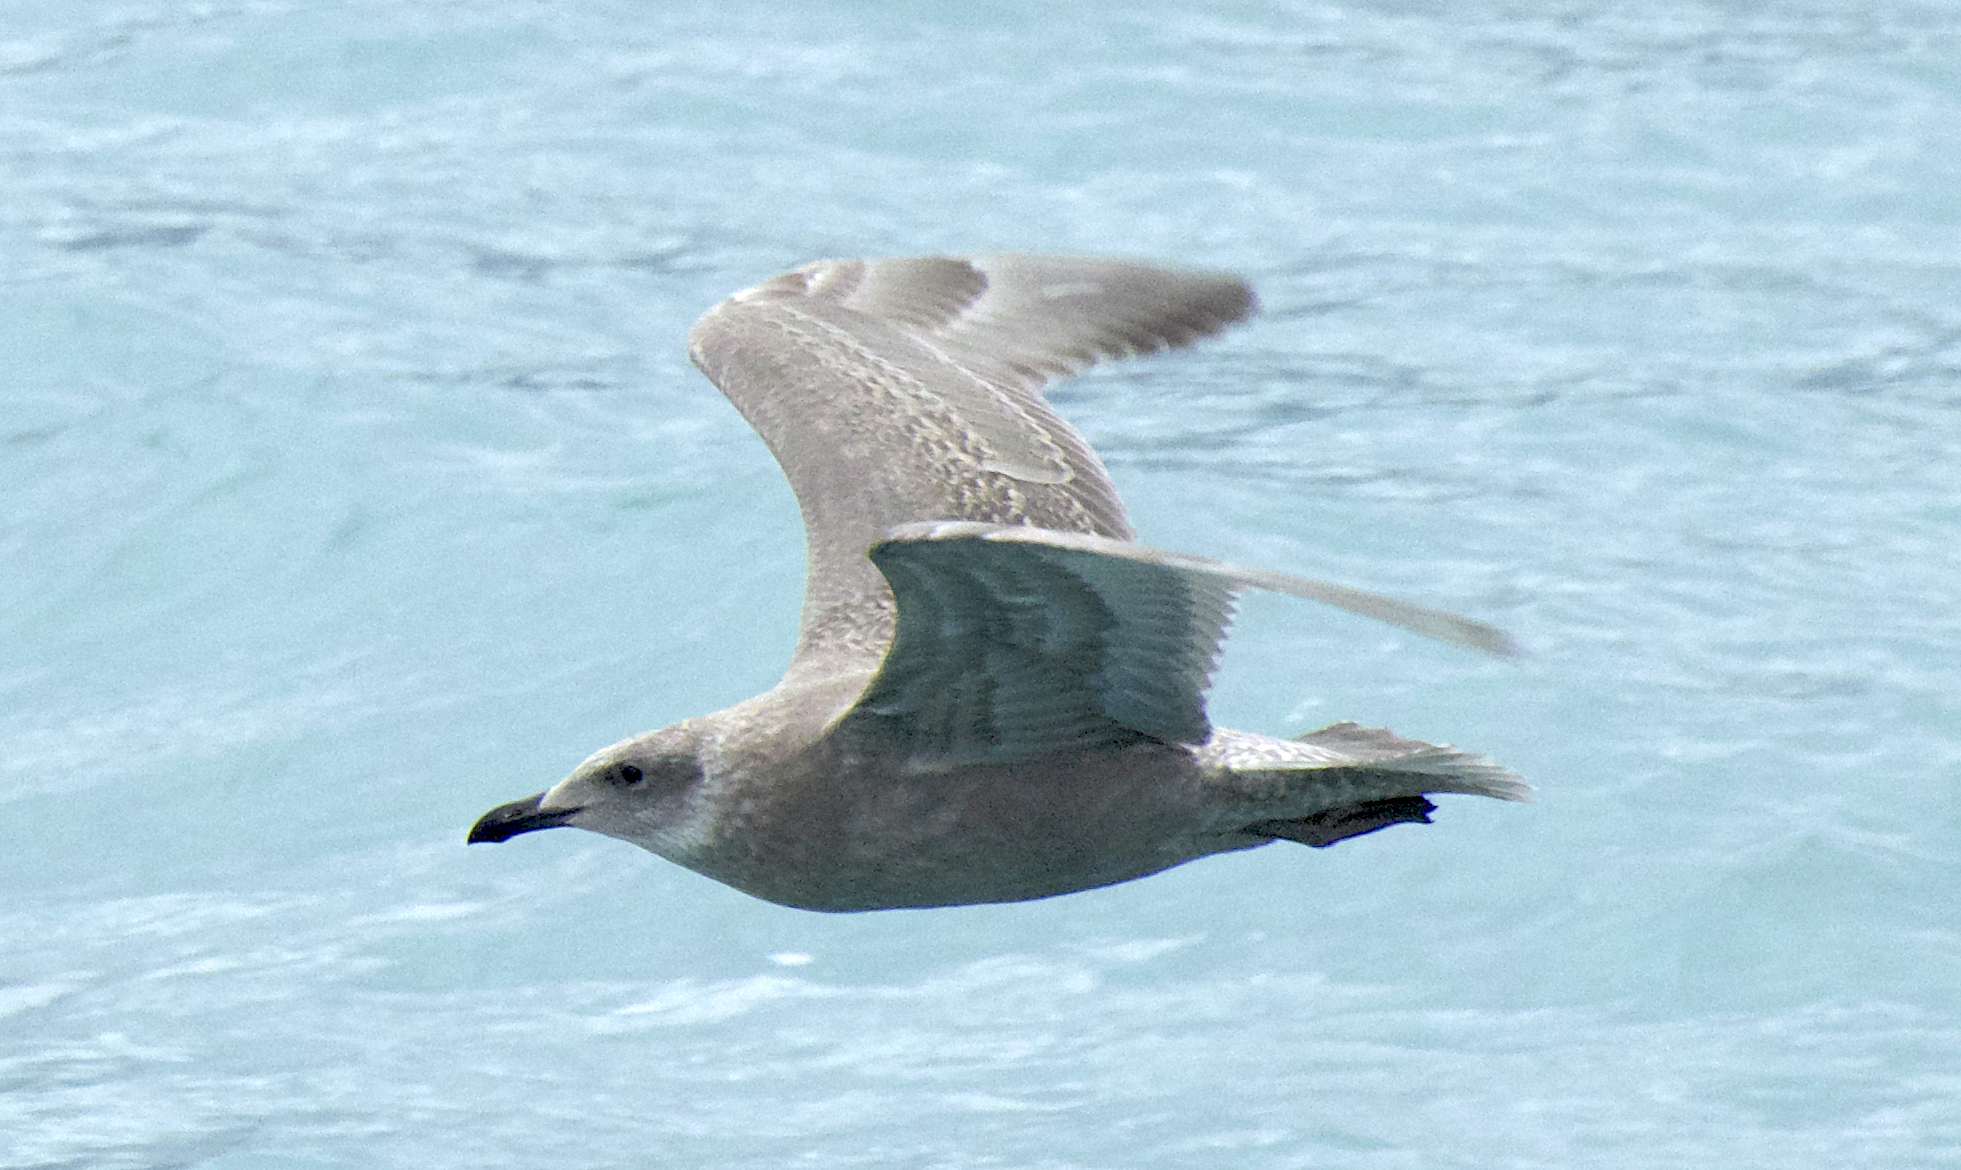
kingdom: Animalia
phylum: Chordata
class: Aves
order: Charadriiformes
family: Laridae
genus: Larus
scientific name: Larus glaucescens
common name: Glaucous-winged gull
